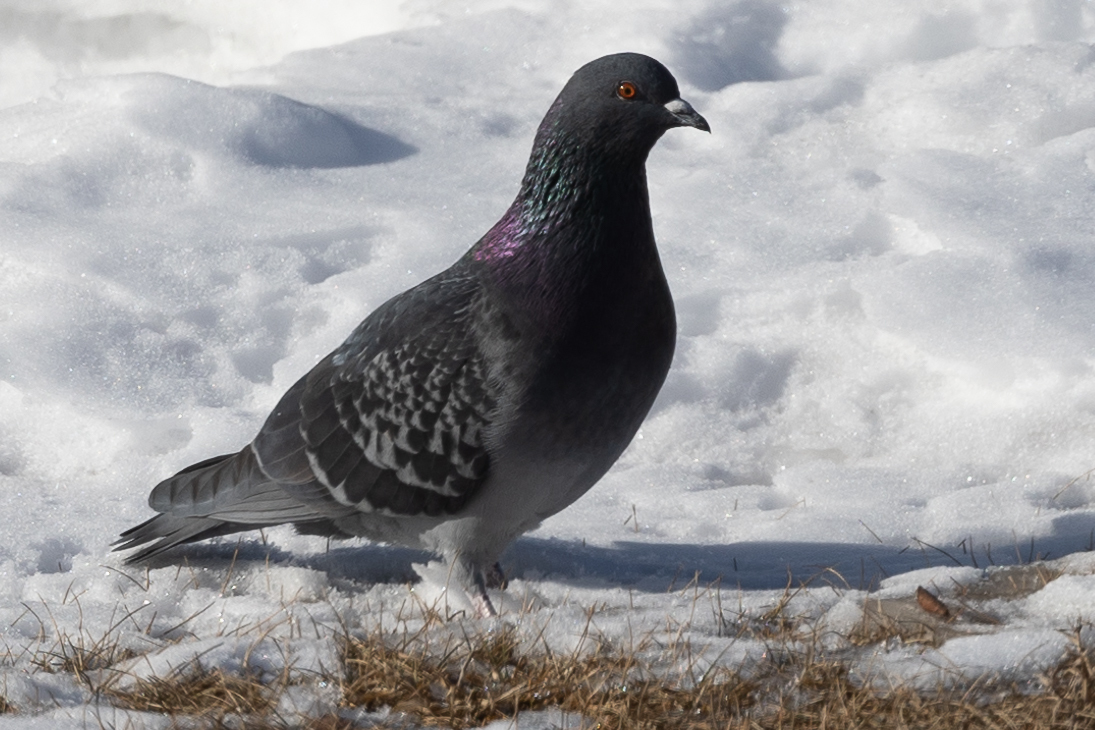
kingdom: Animalia
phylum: Chordata
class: Aves
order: Columbiformes
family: Columbidae
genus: Columba
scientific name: Columba livia
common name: Rock pigeon
